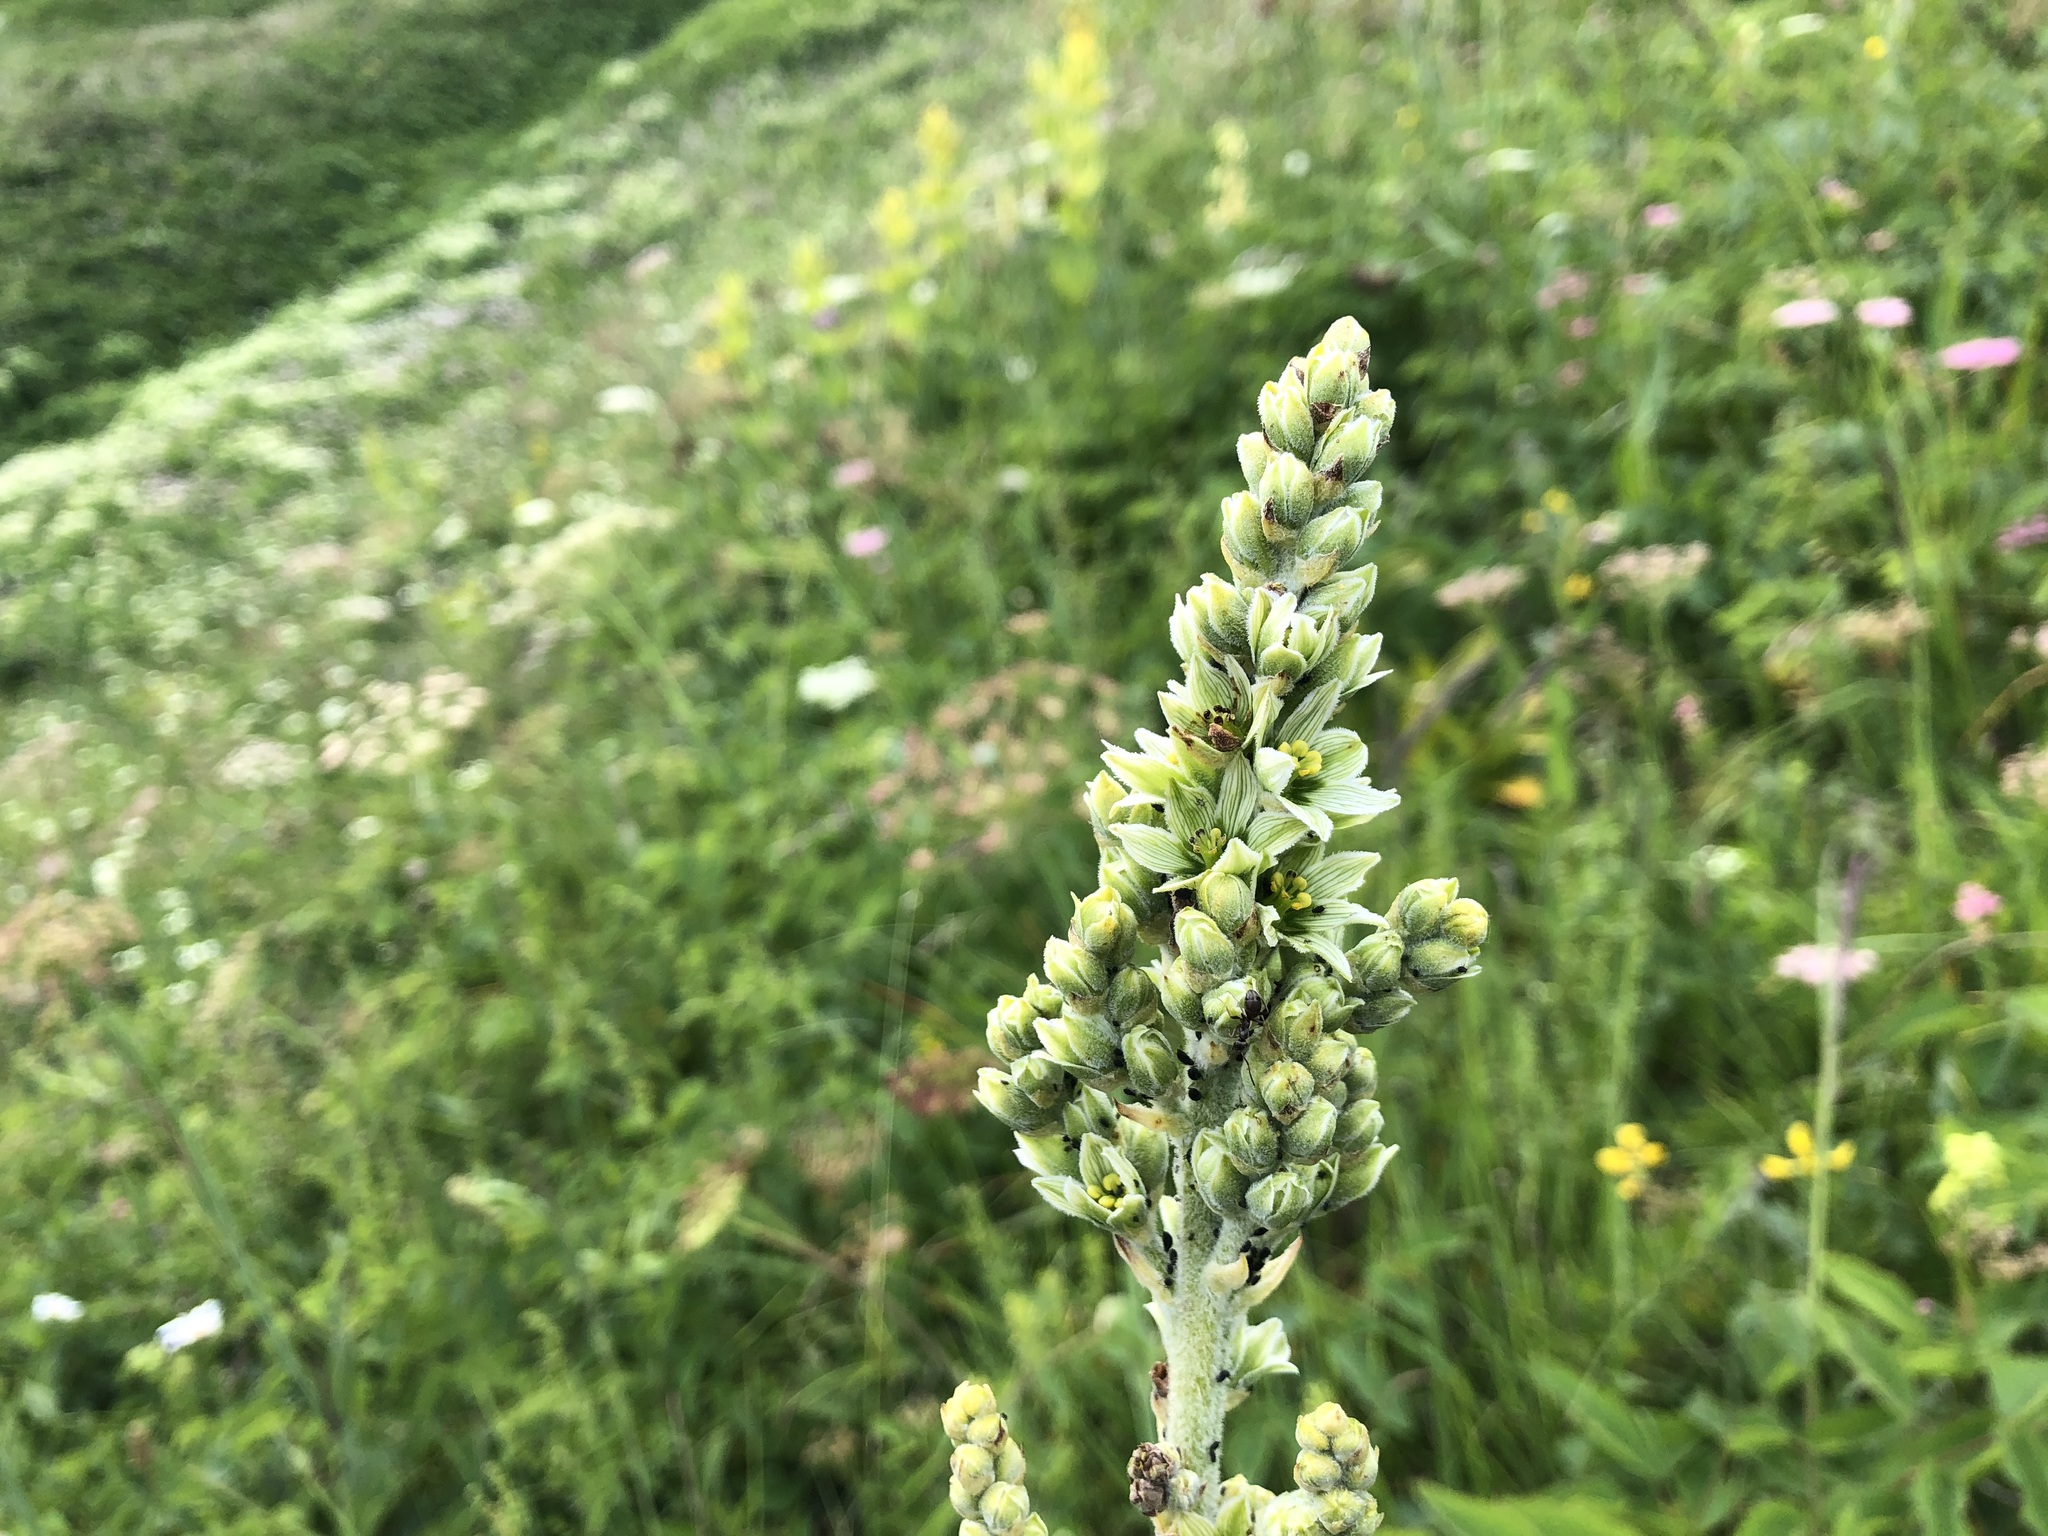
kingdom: Plantae
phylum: Tracheophyta
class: Liliopsida
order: Liliales
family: Melanthiaceae
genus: Veratrum
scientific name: Veratrum album
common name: White veratrum
